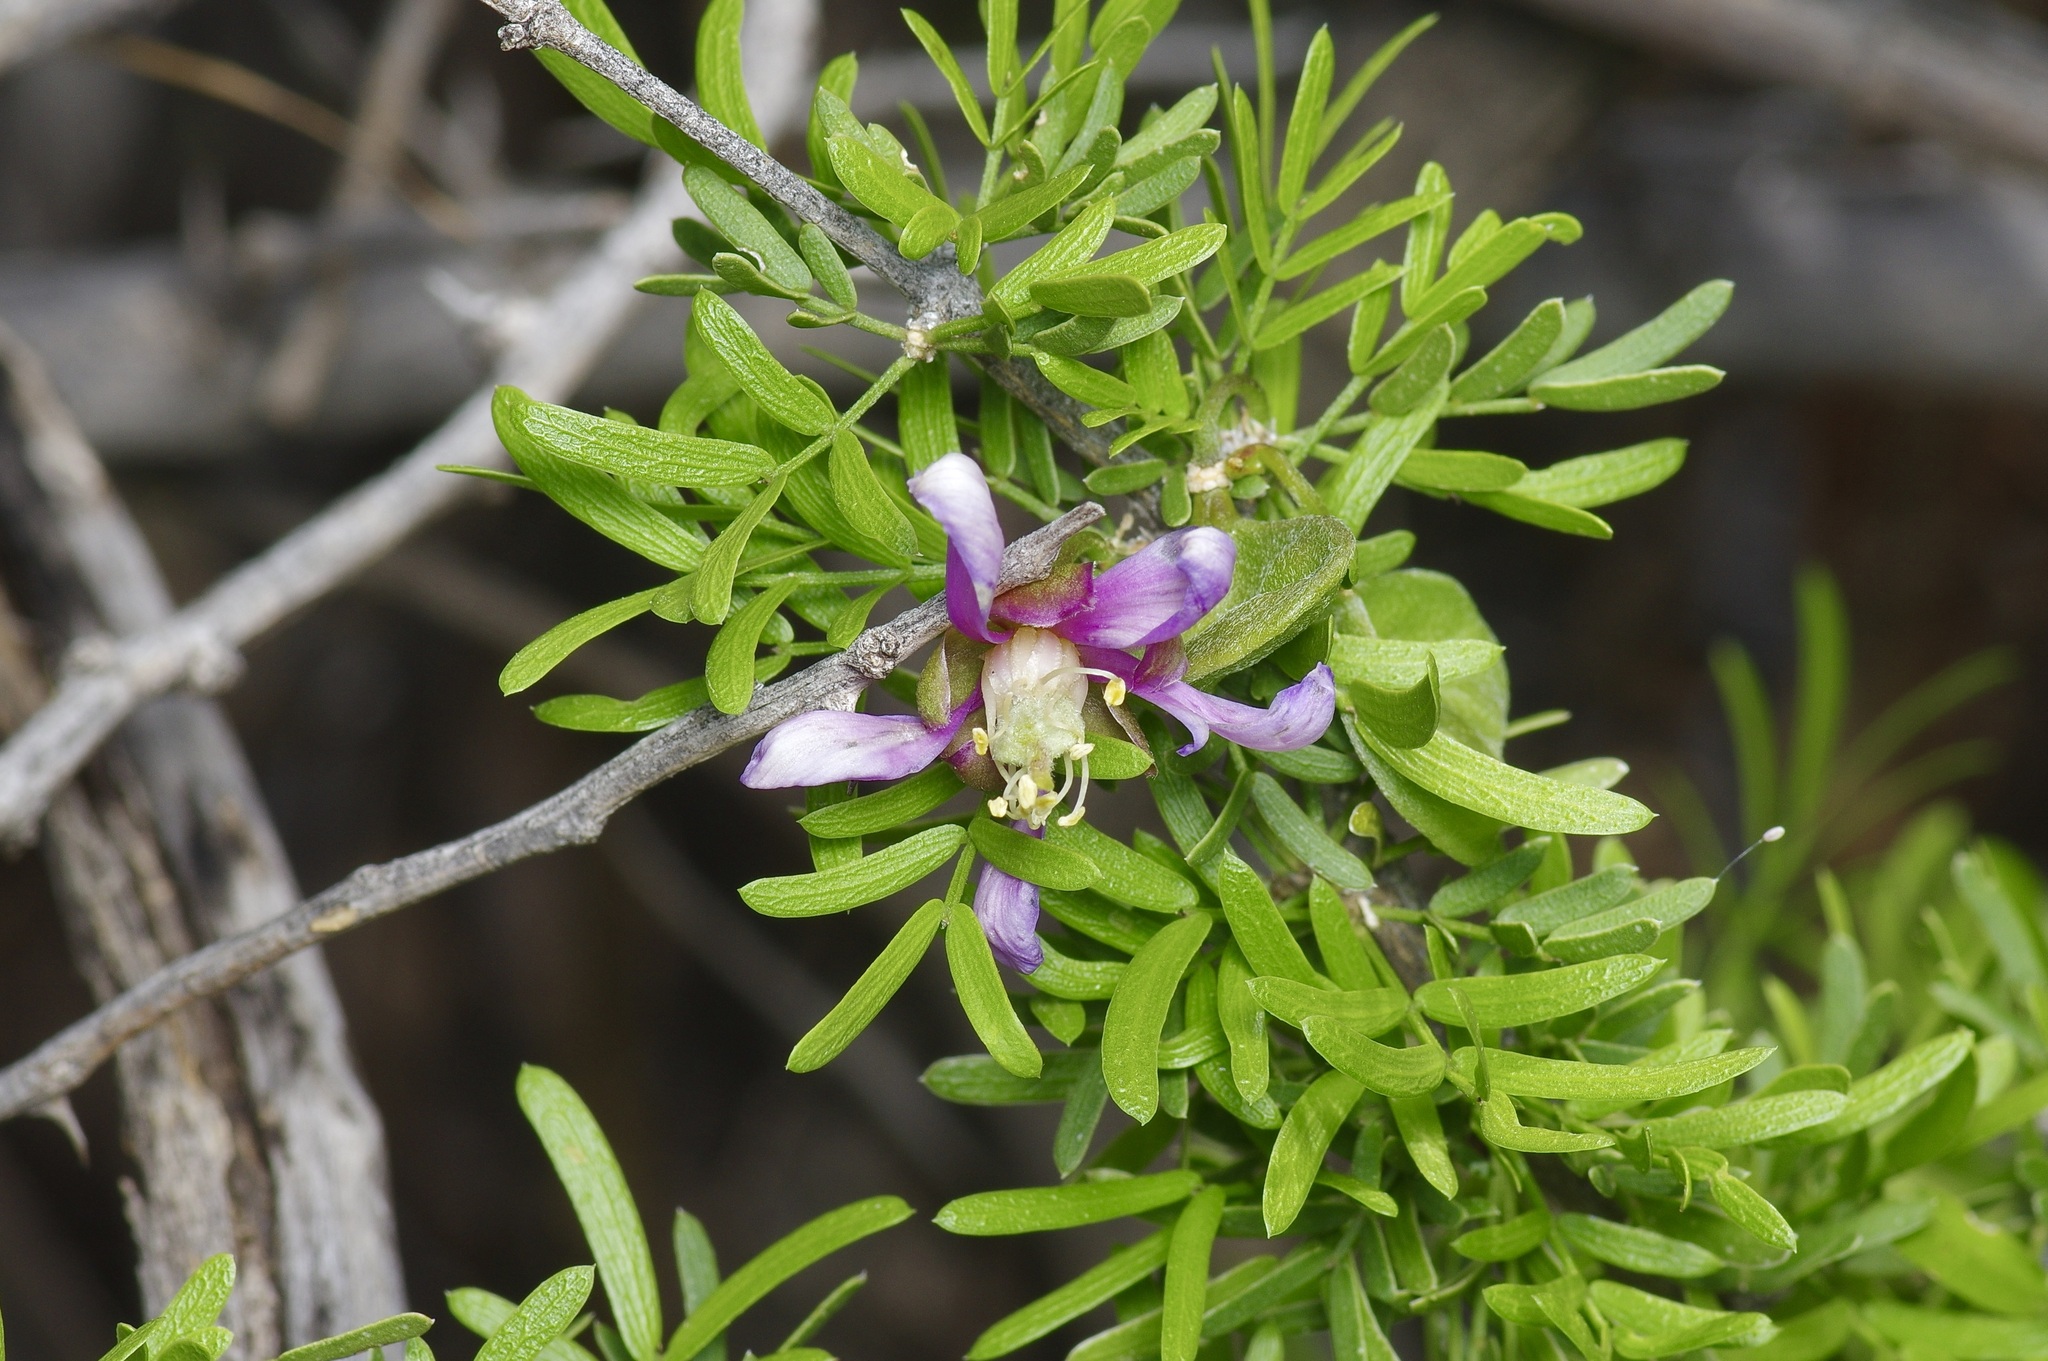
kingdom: Plantae
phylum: Tracheophyta
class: Magnoliopsida
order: Zygophyllales
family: Zygophyllaceae
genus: Porlieria
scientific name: Porlieria angustifolia
